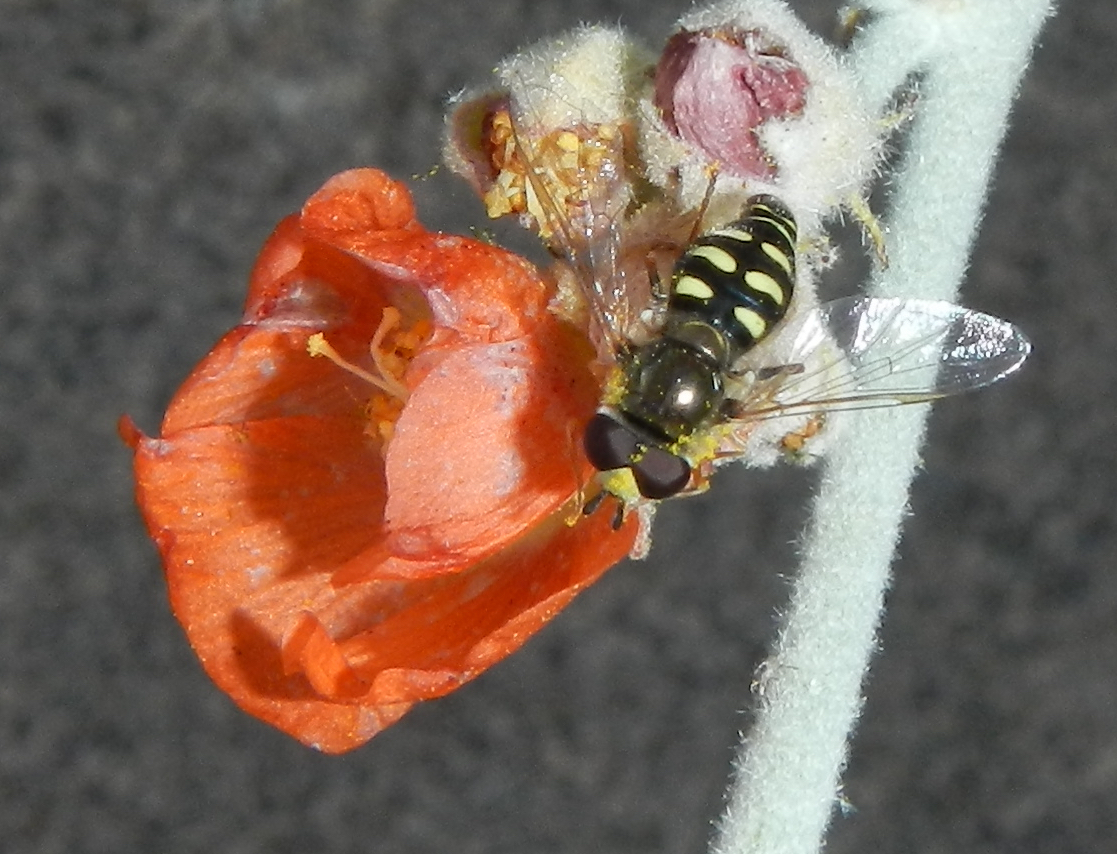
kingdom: Animalia
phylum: Arthropoda
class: Insecta
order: Diptera
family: Syrphidae
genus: Eupeodes
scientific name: Eupeodes volucris
